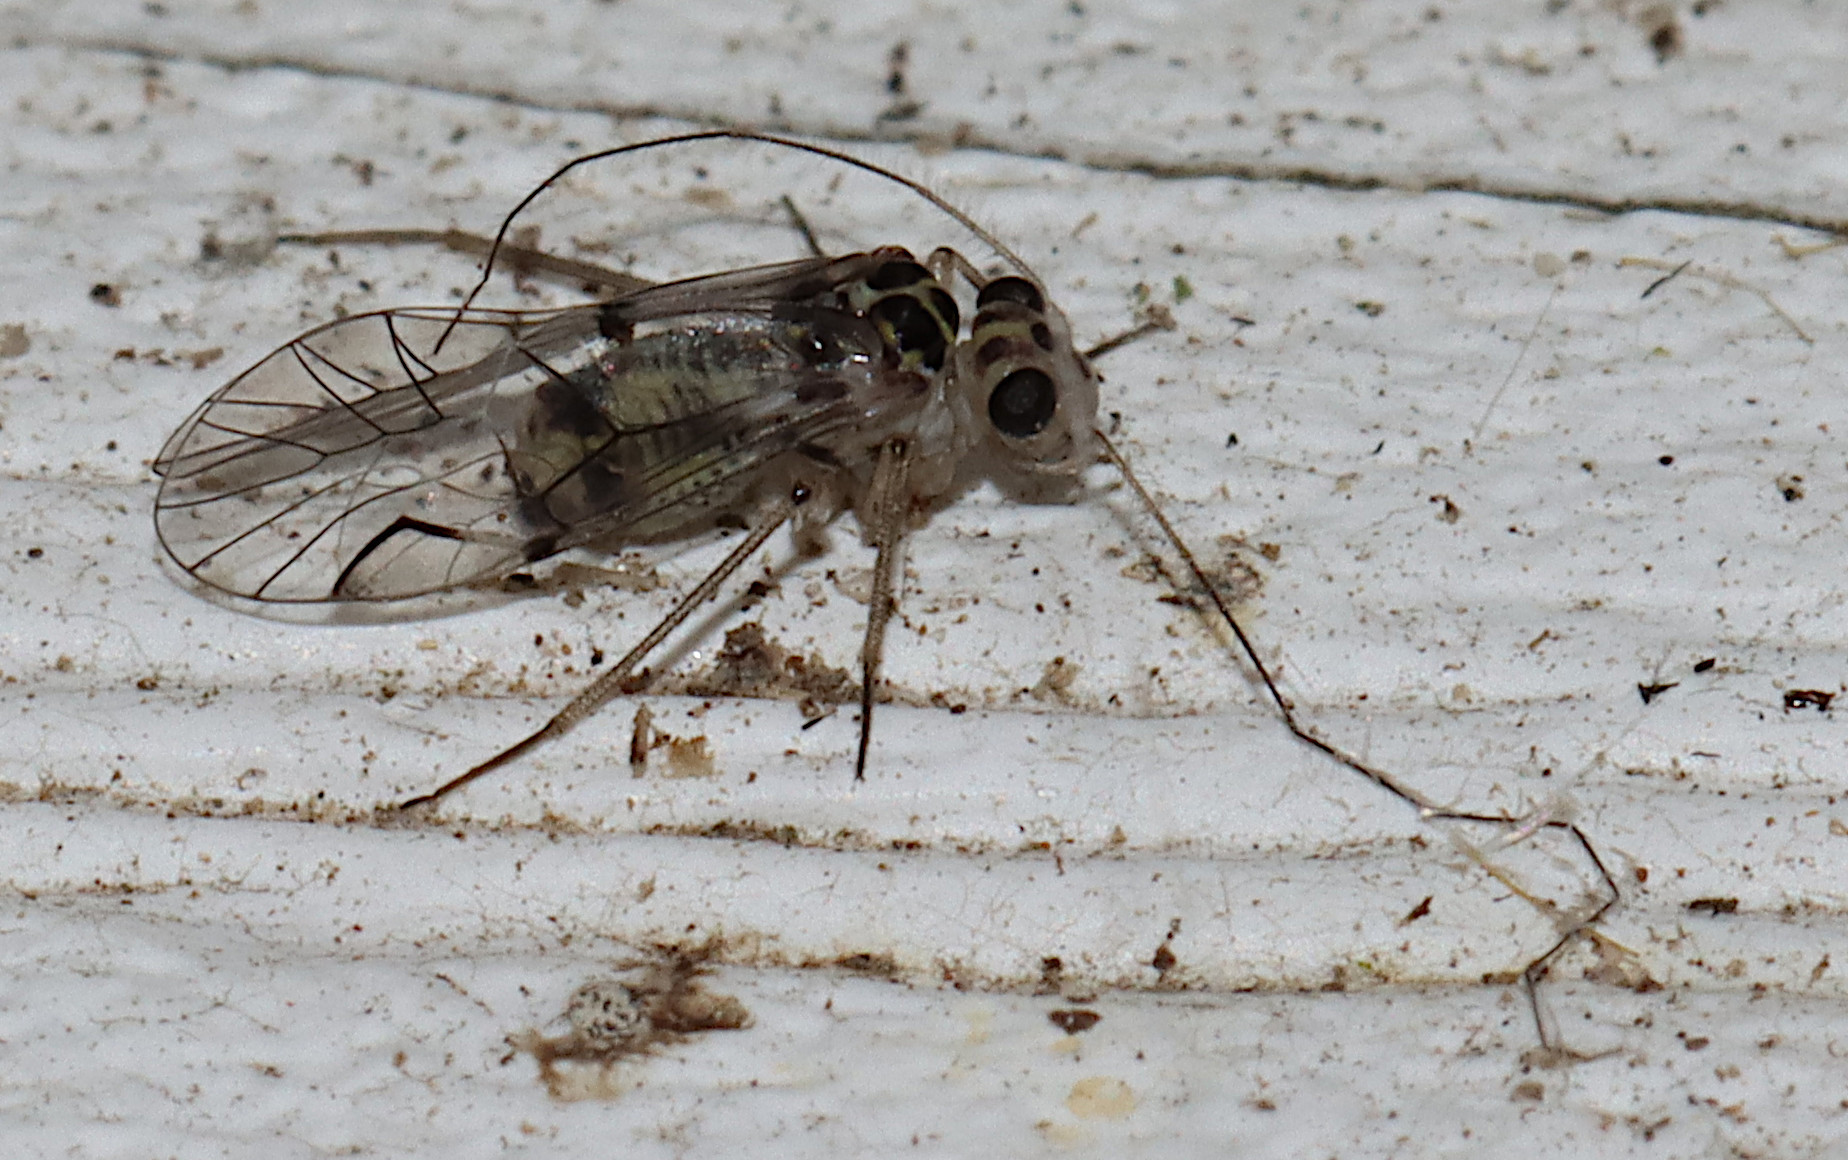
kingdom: Animalia
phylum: Arthropoda
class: Insecta
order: Psocodea
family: Psocidae
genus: Metylophorus
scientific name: Metylophorus purus
